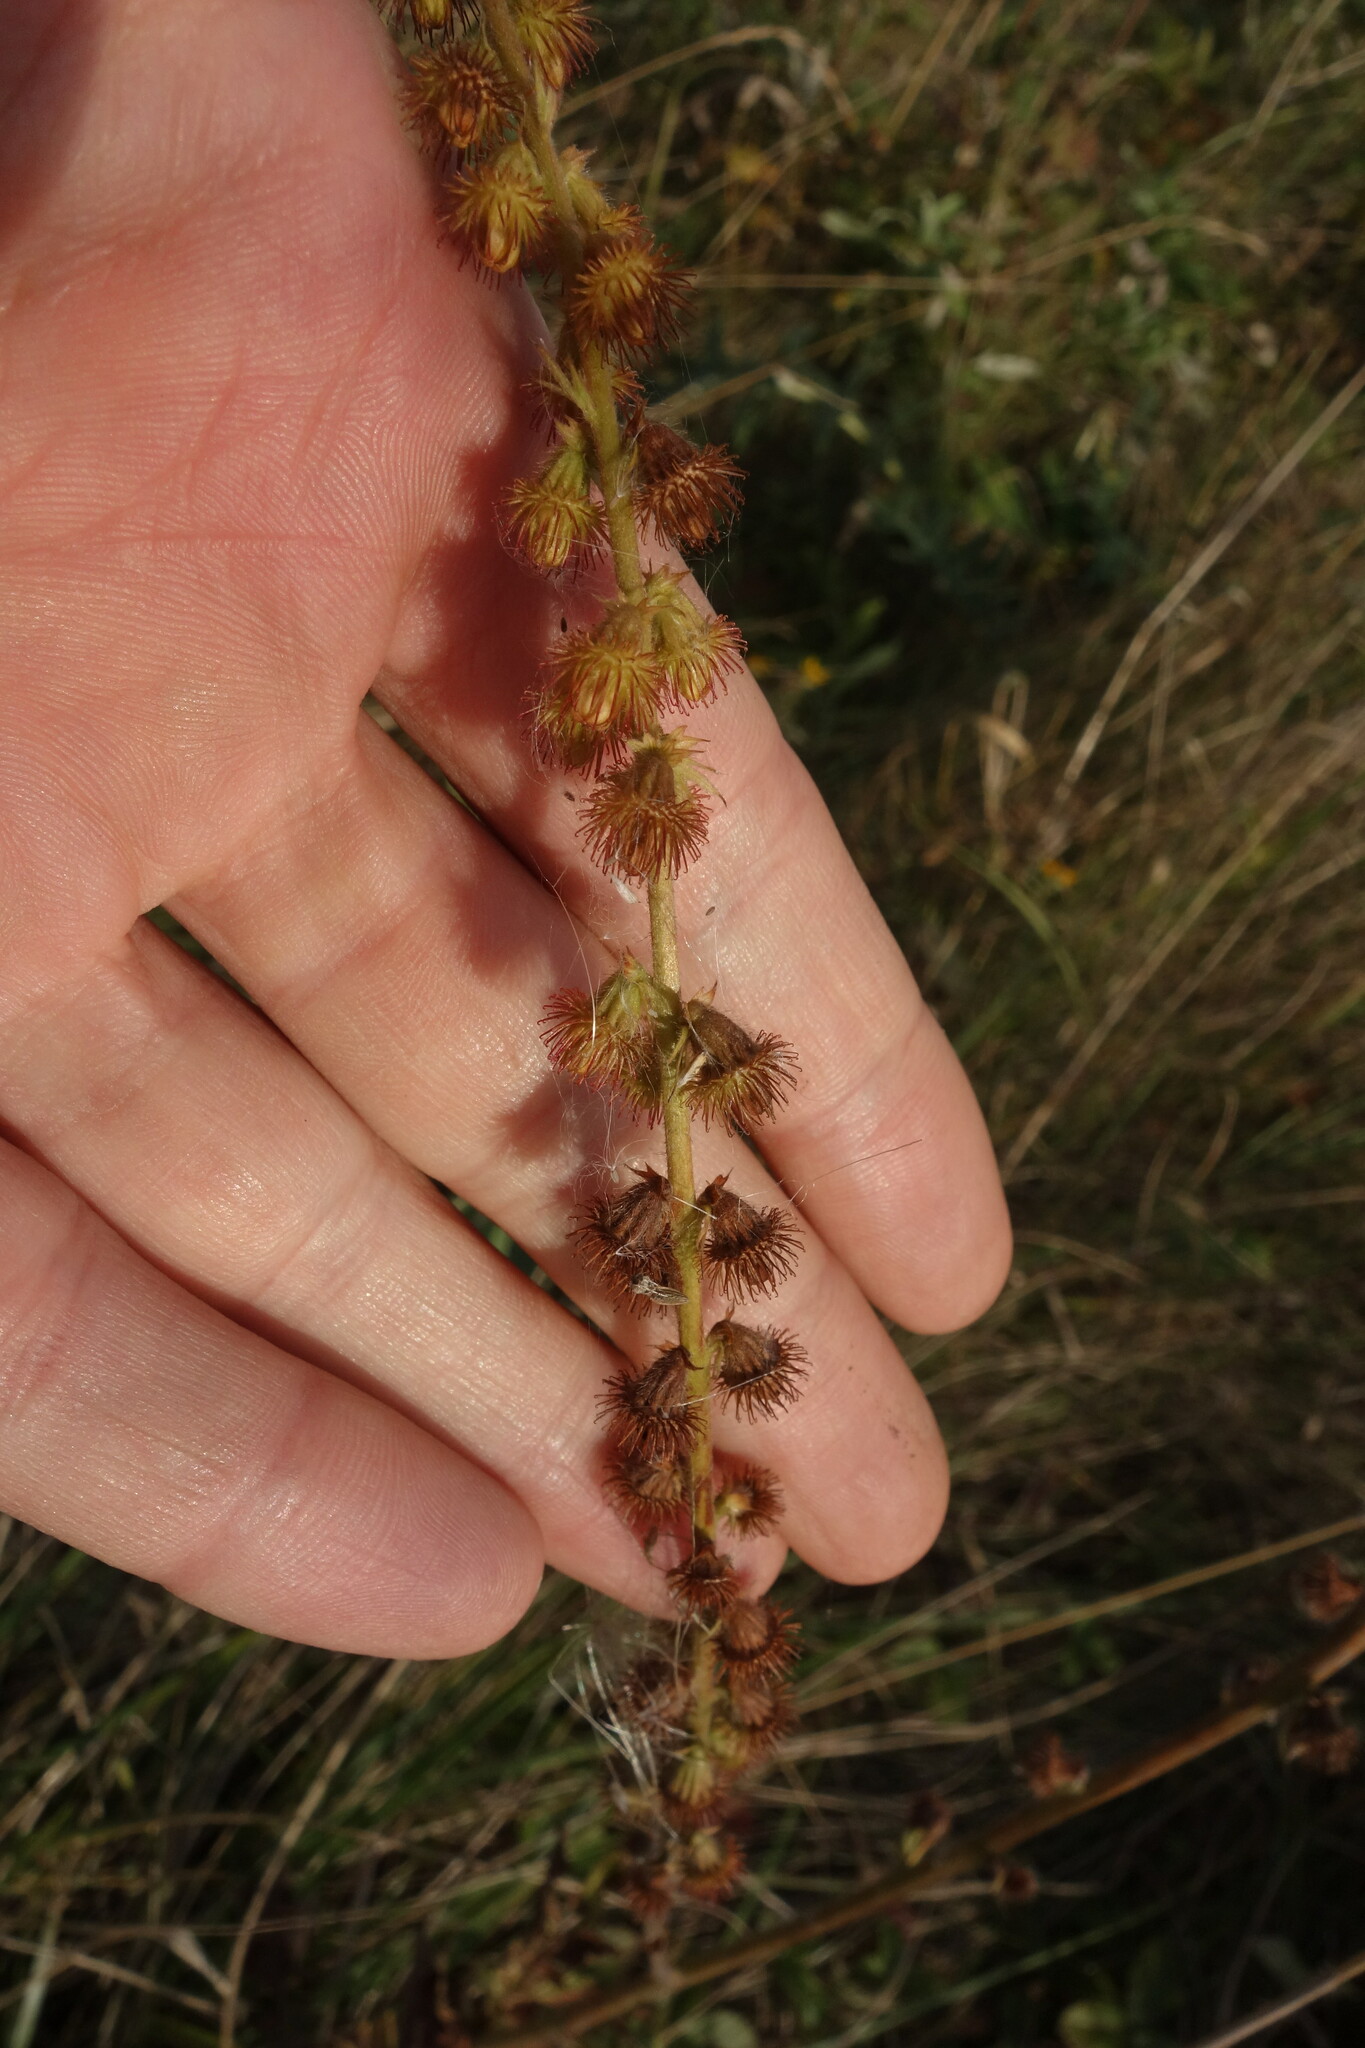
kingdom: Plantae
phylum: Tracheophyta
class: Magnoliopsida
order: Rosales
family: Rosaceae
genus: Agrimonia
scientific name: Agrimonia eupatoria
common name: Agrimony
